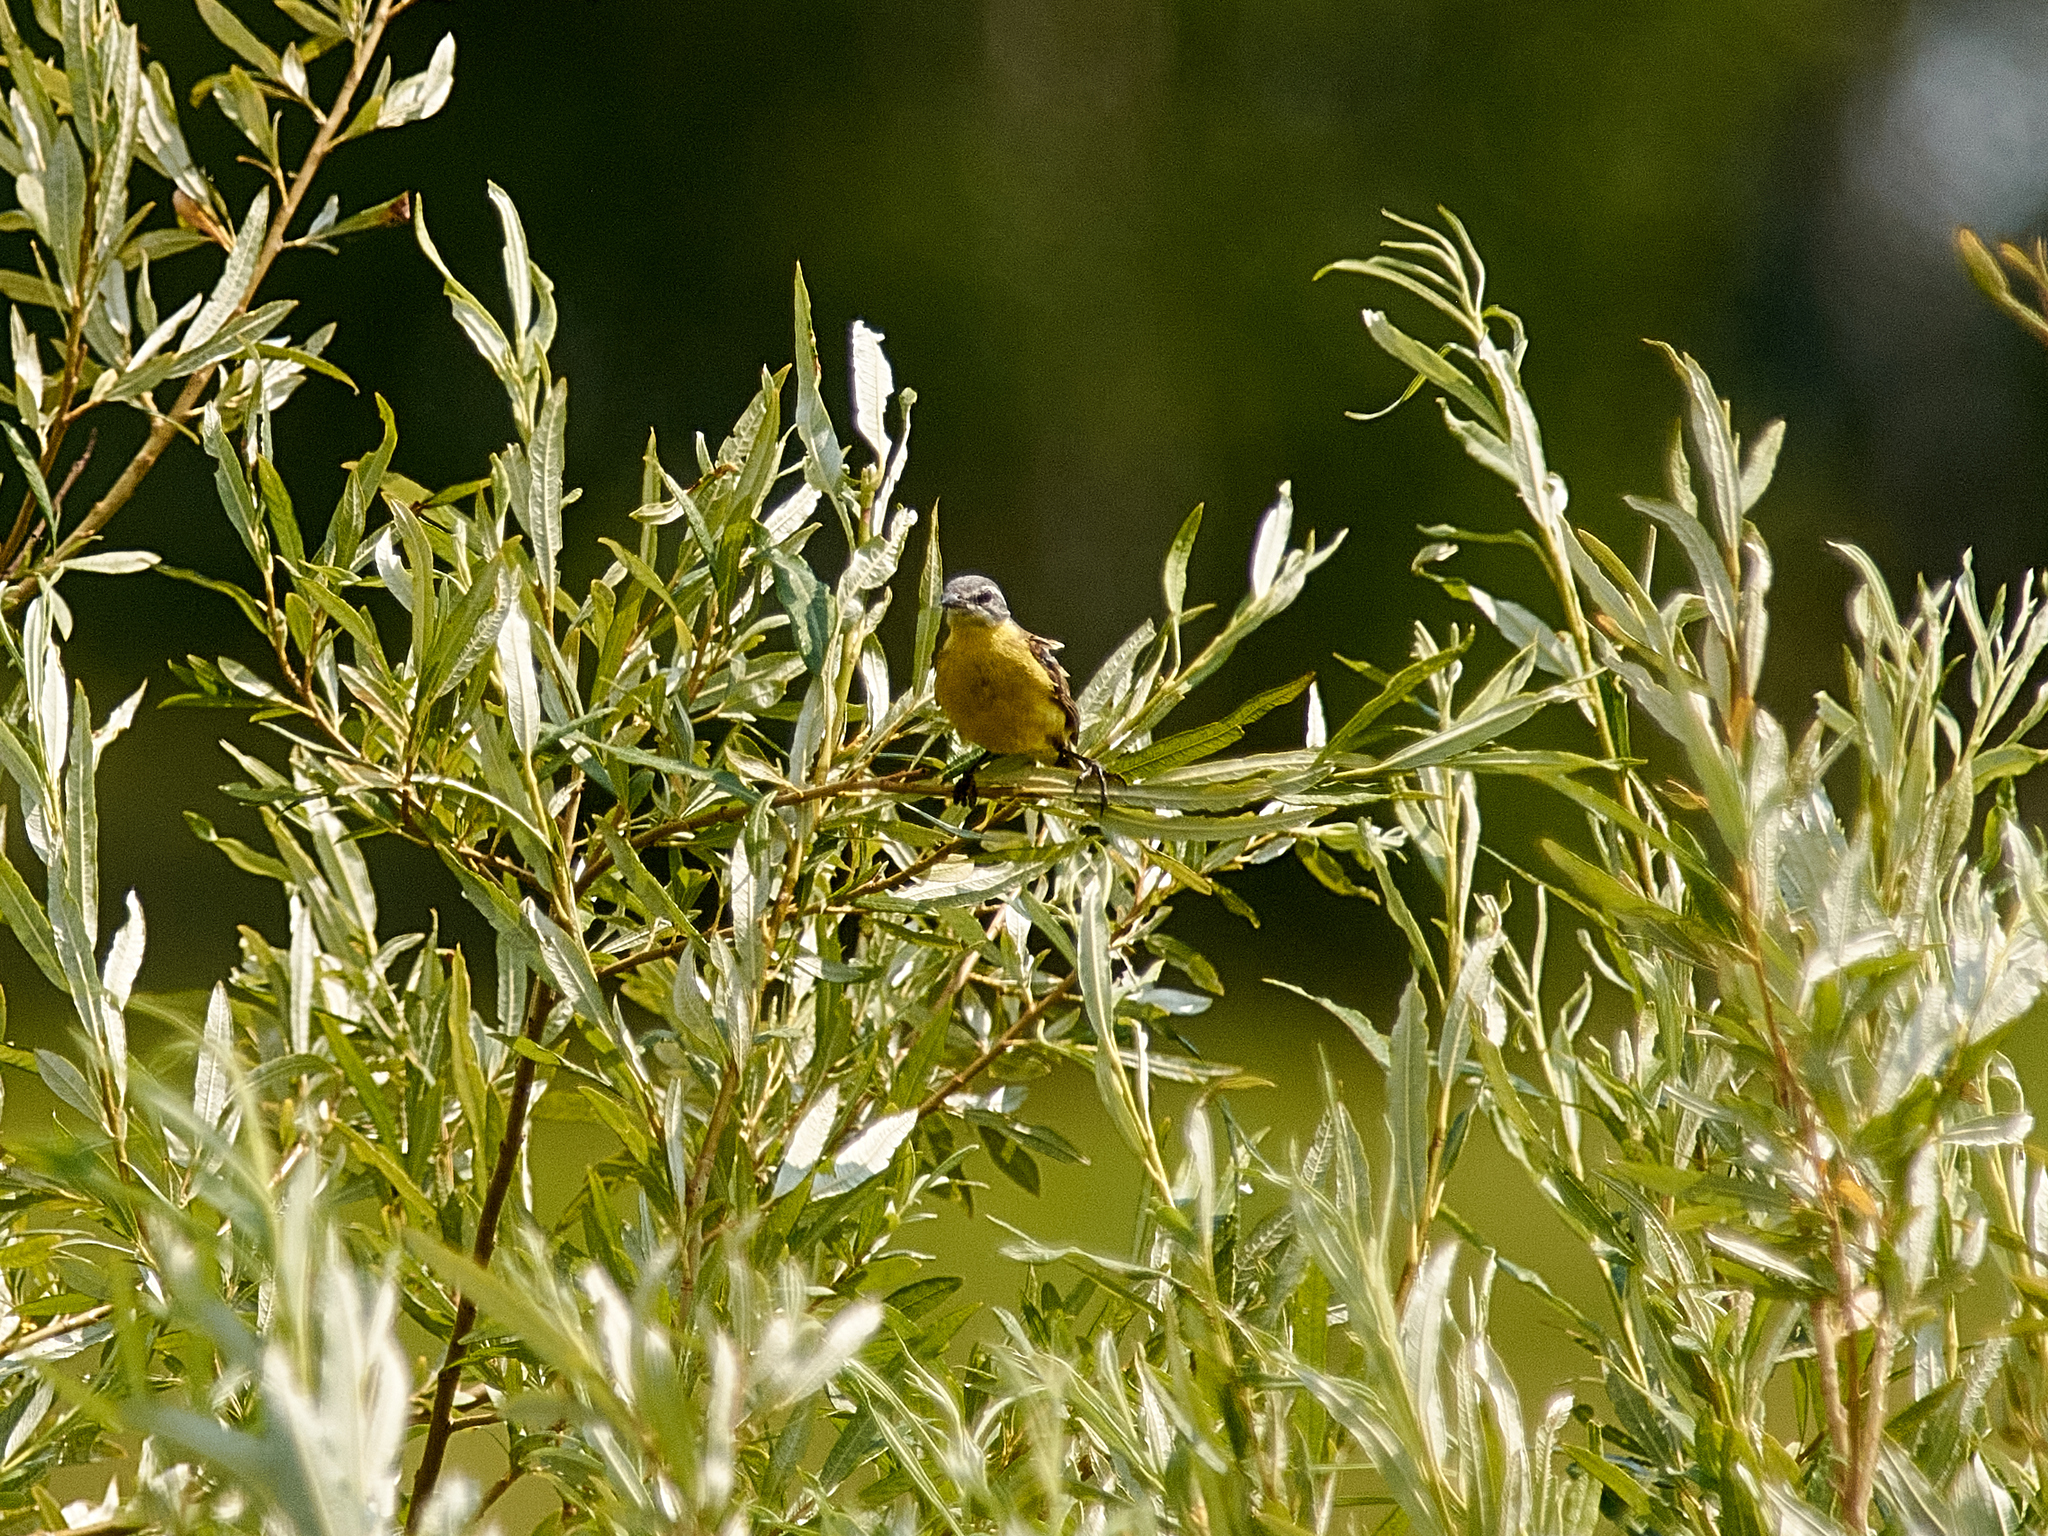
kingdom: Animalia
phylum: Chordata
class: Aves
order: Passeriformes
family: Motacillidae
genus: Motacilla
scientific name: Motacilla flava
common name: Western yellow wagtail
